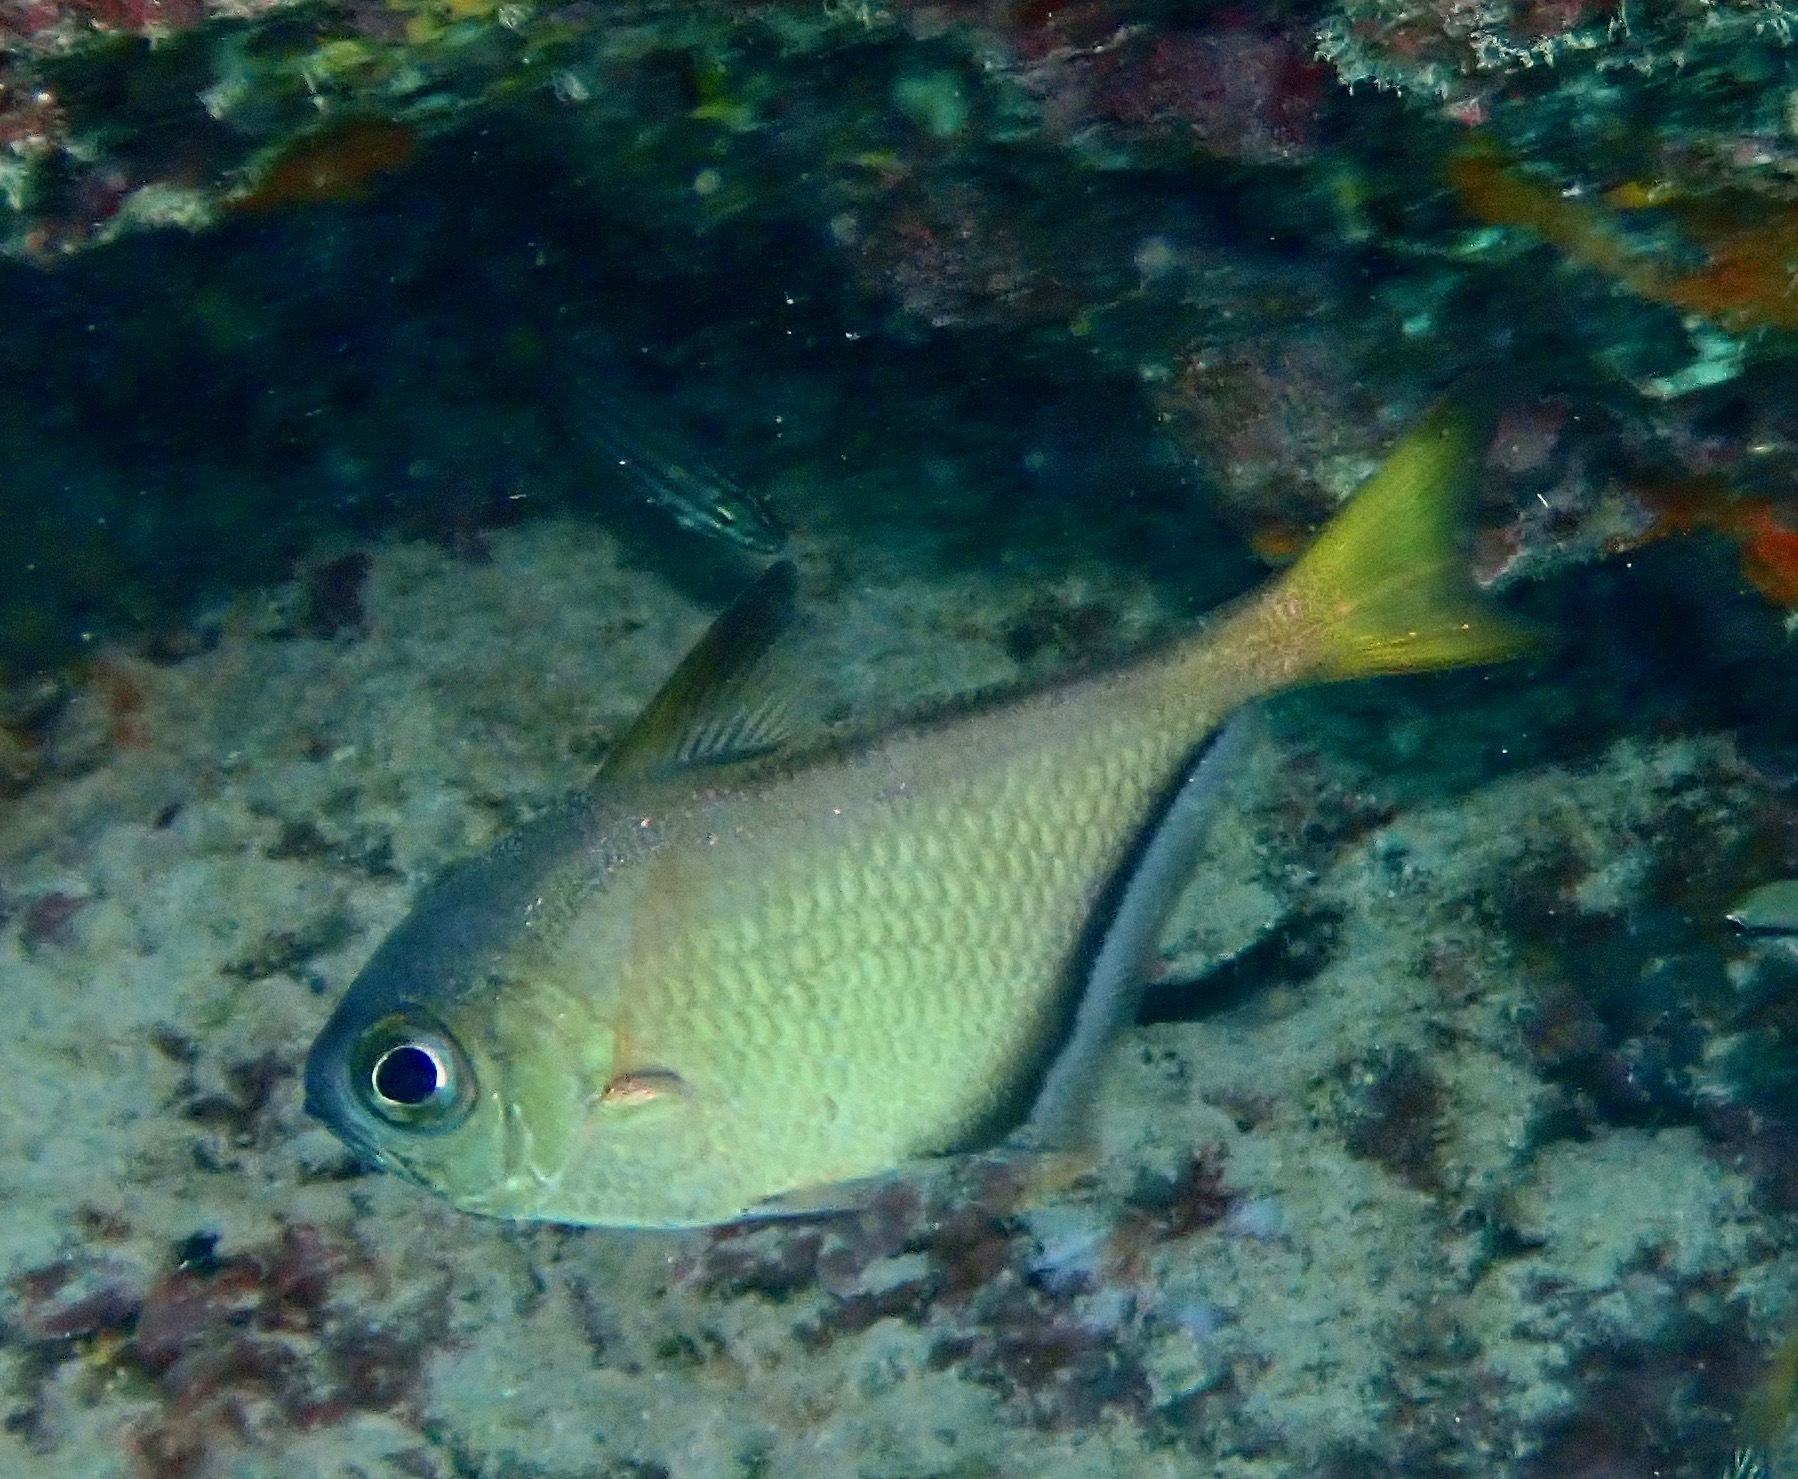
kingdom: Animalia
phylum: Chordata
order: Perciformes
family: Pempheridae
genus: Pempheris
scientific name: Pempheris schwenkii
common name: Silver bullseye
